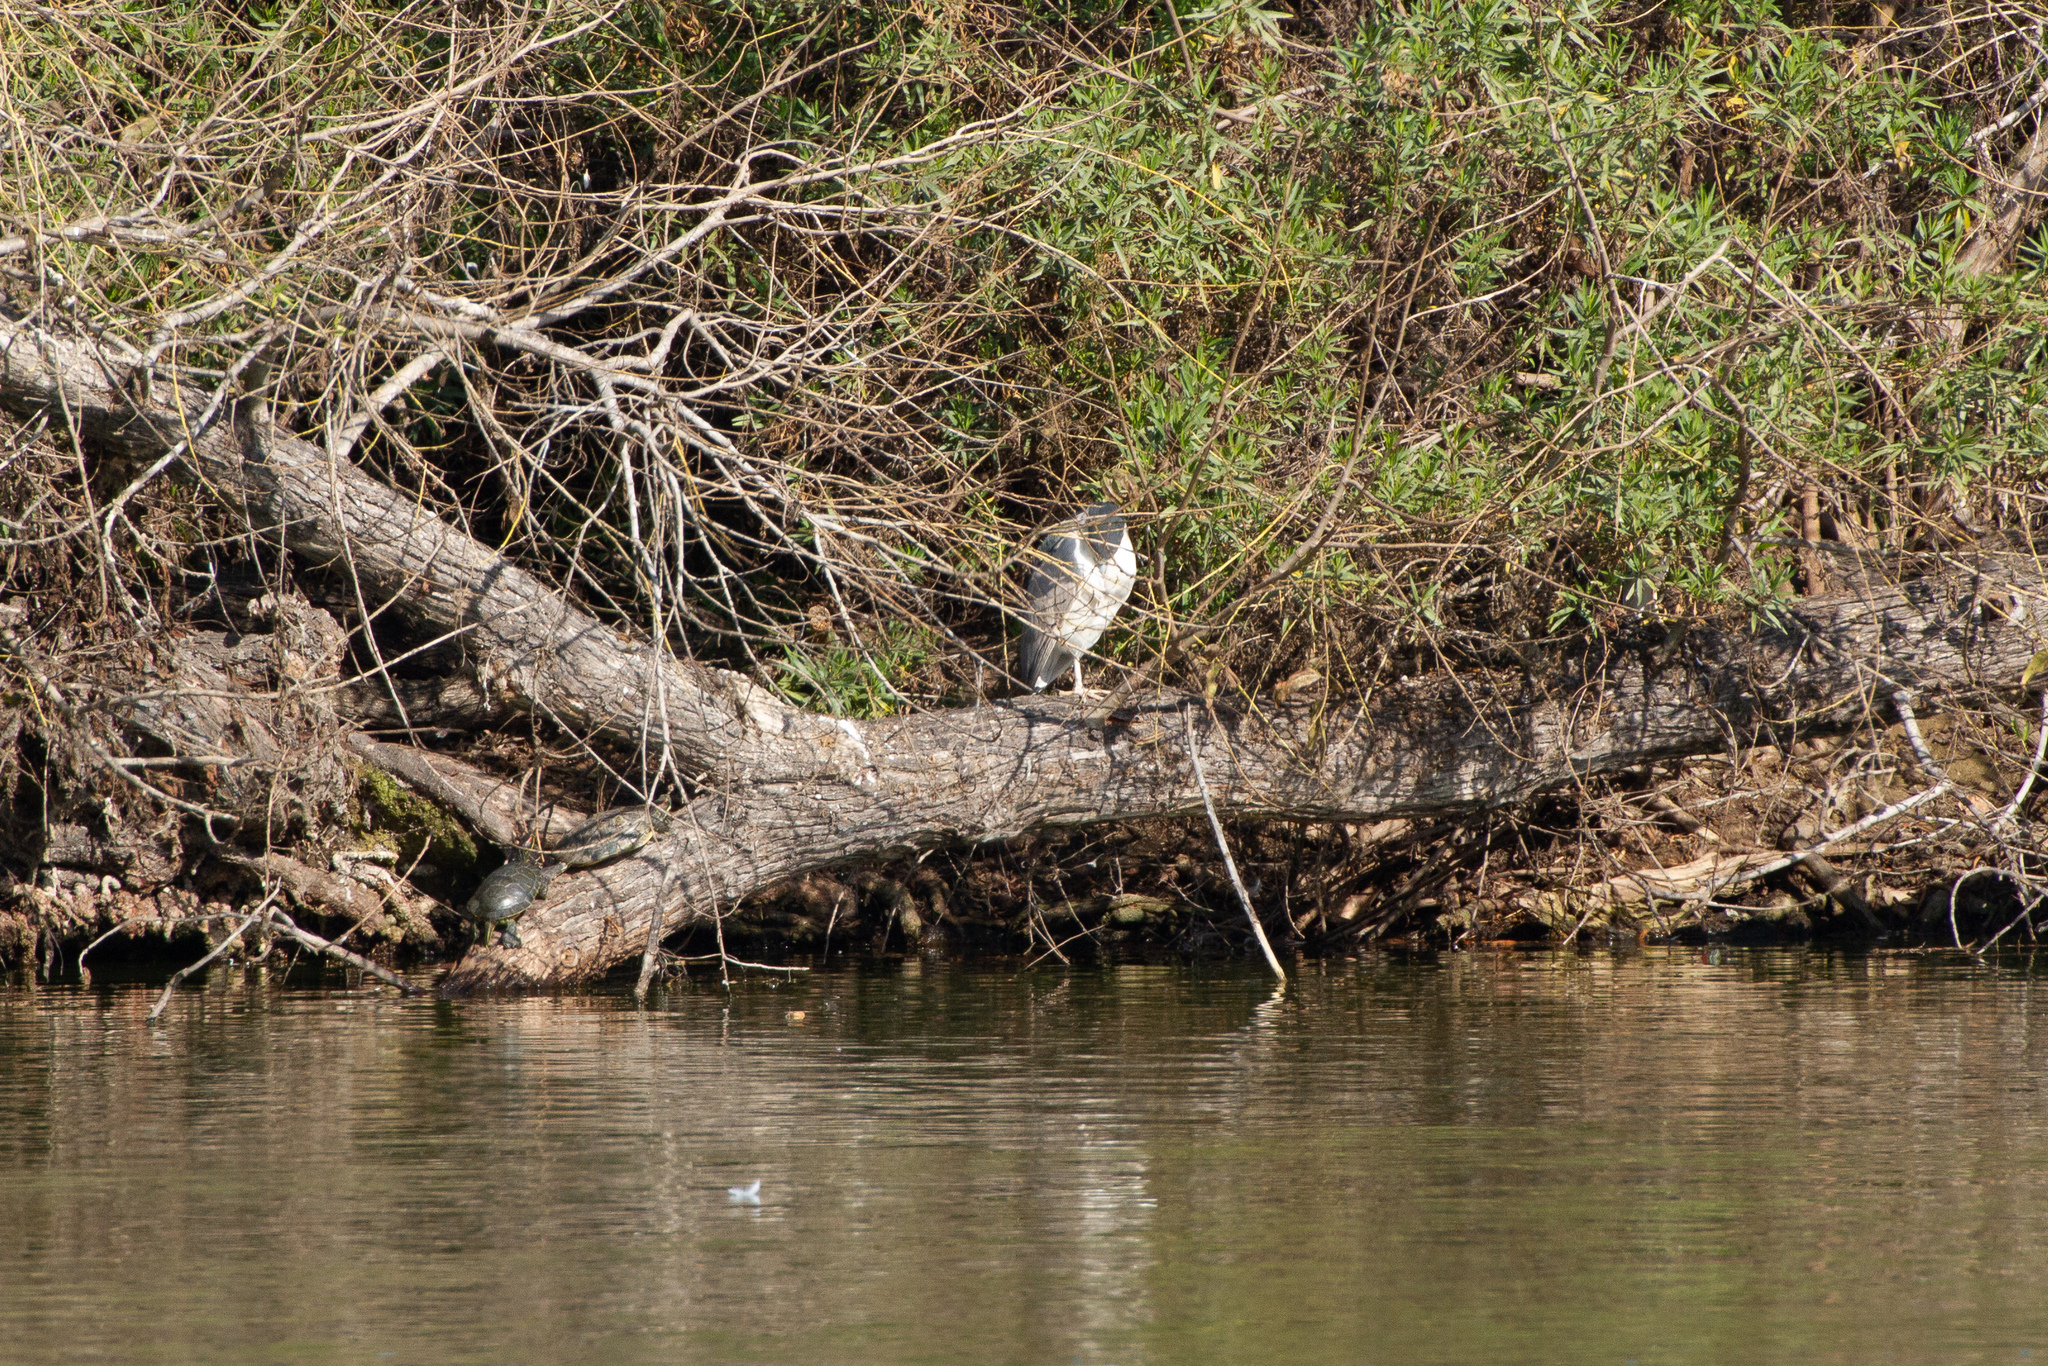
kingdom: Animalia
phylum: Chordata
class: Aves
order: Pelecaniformes
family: Ardeidae
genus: Nycticorax
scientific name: Nycticorax nycticorax
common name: Black-crowned night heron
